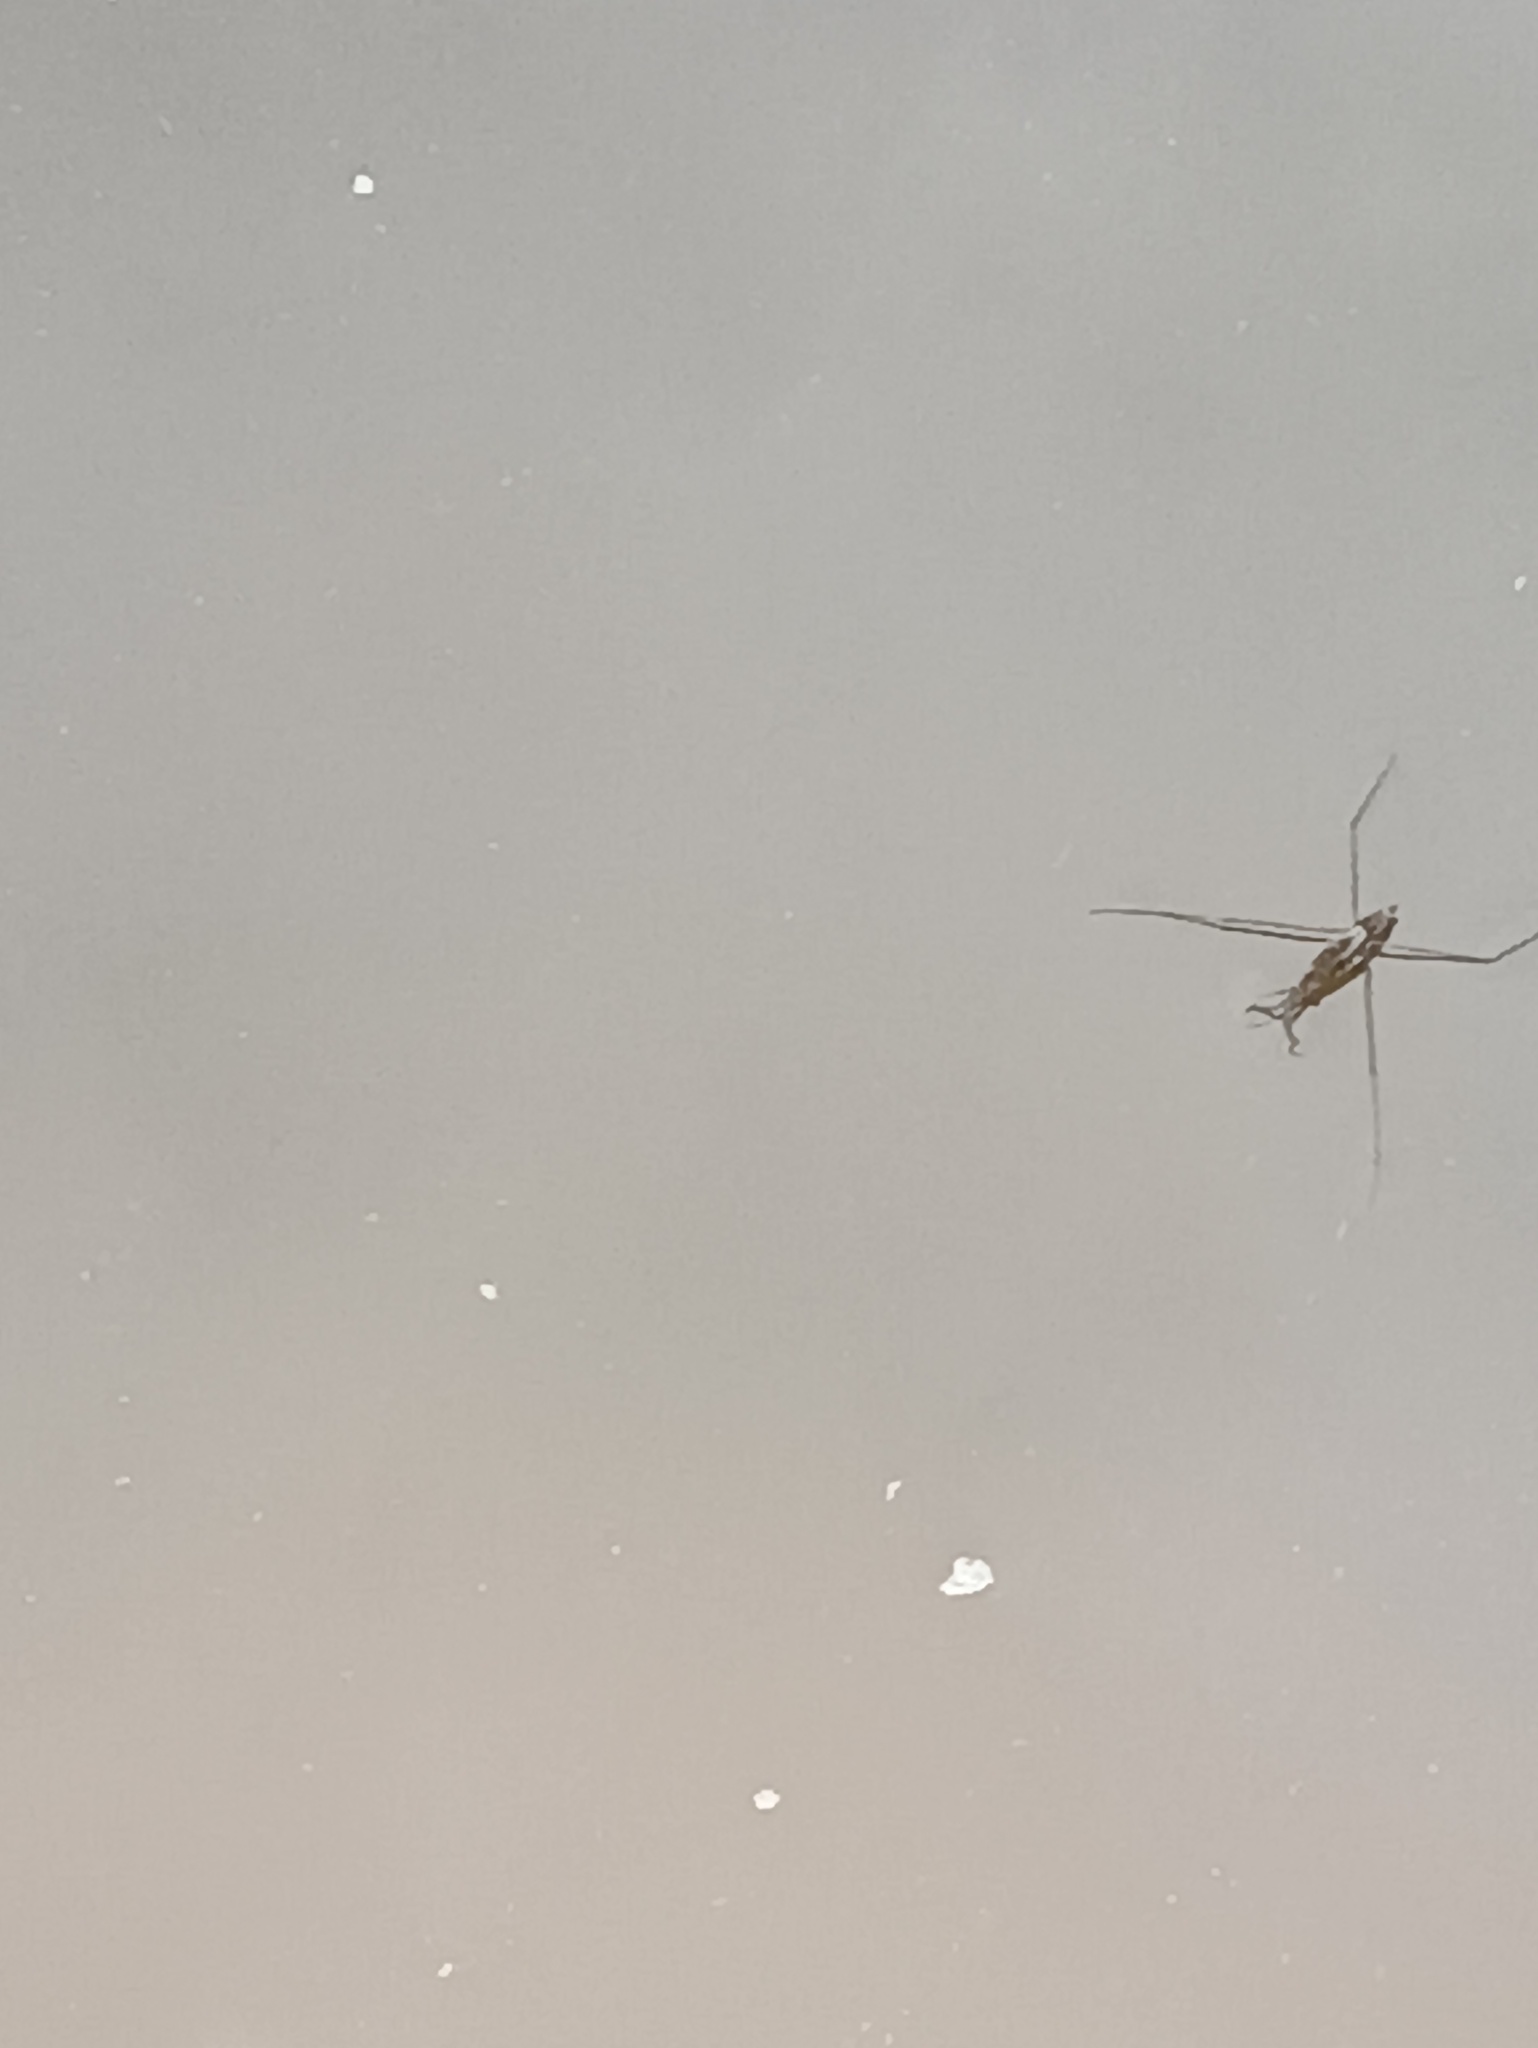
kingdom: Animalia
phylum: Arthropoda
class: Insecta
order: Hemiptera
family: Gerridae
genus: Aquarius
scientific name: Aquarius paludum
